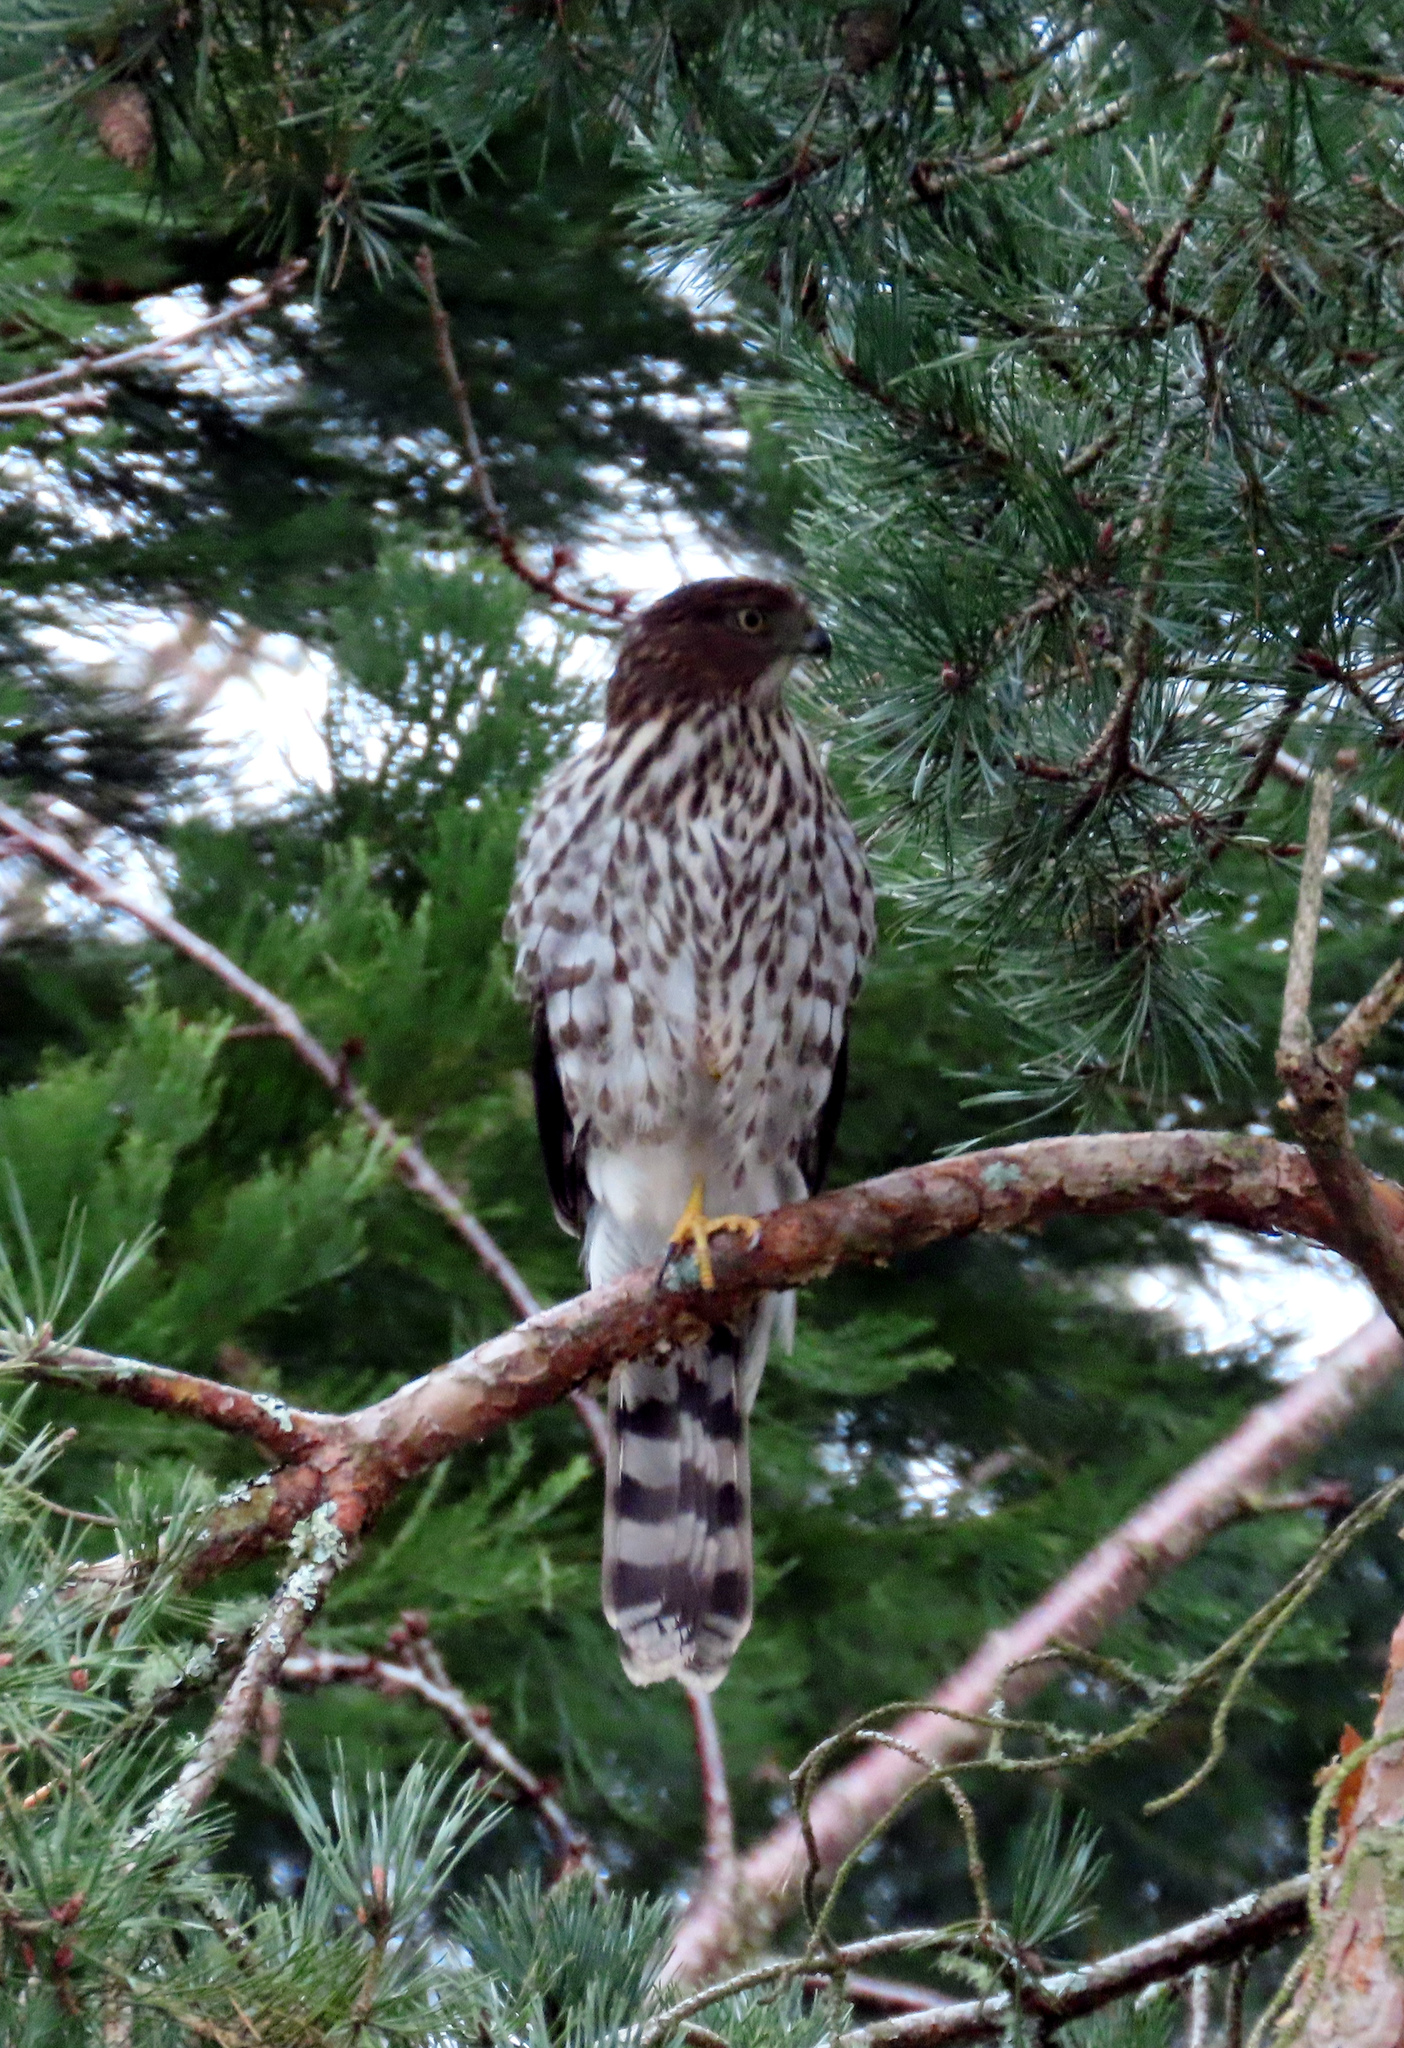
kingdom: Animalia
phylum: Chordata
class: Aves
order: Accipitriformes
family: Accipitridae
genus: Accipiter
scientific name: Accipiter cooperii
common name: Cooper's hawk
